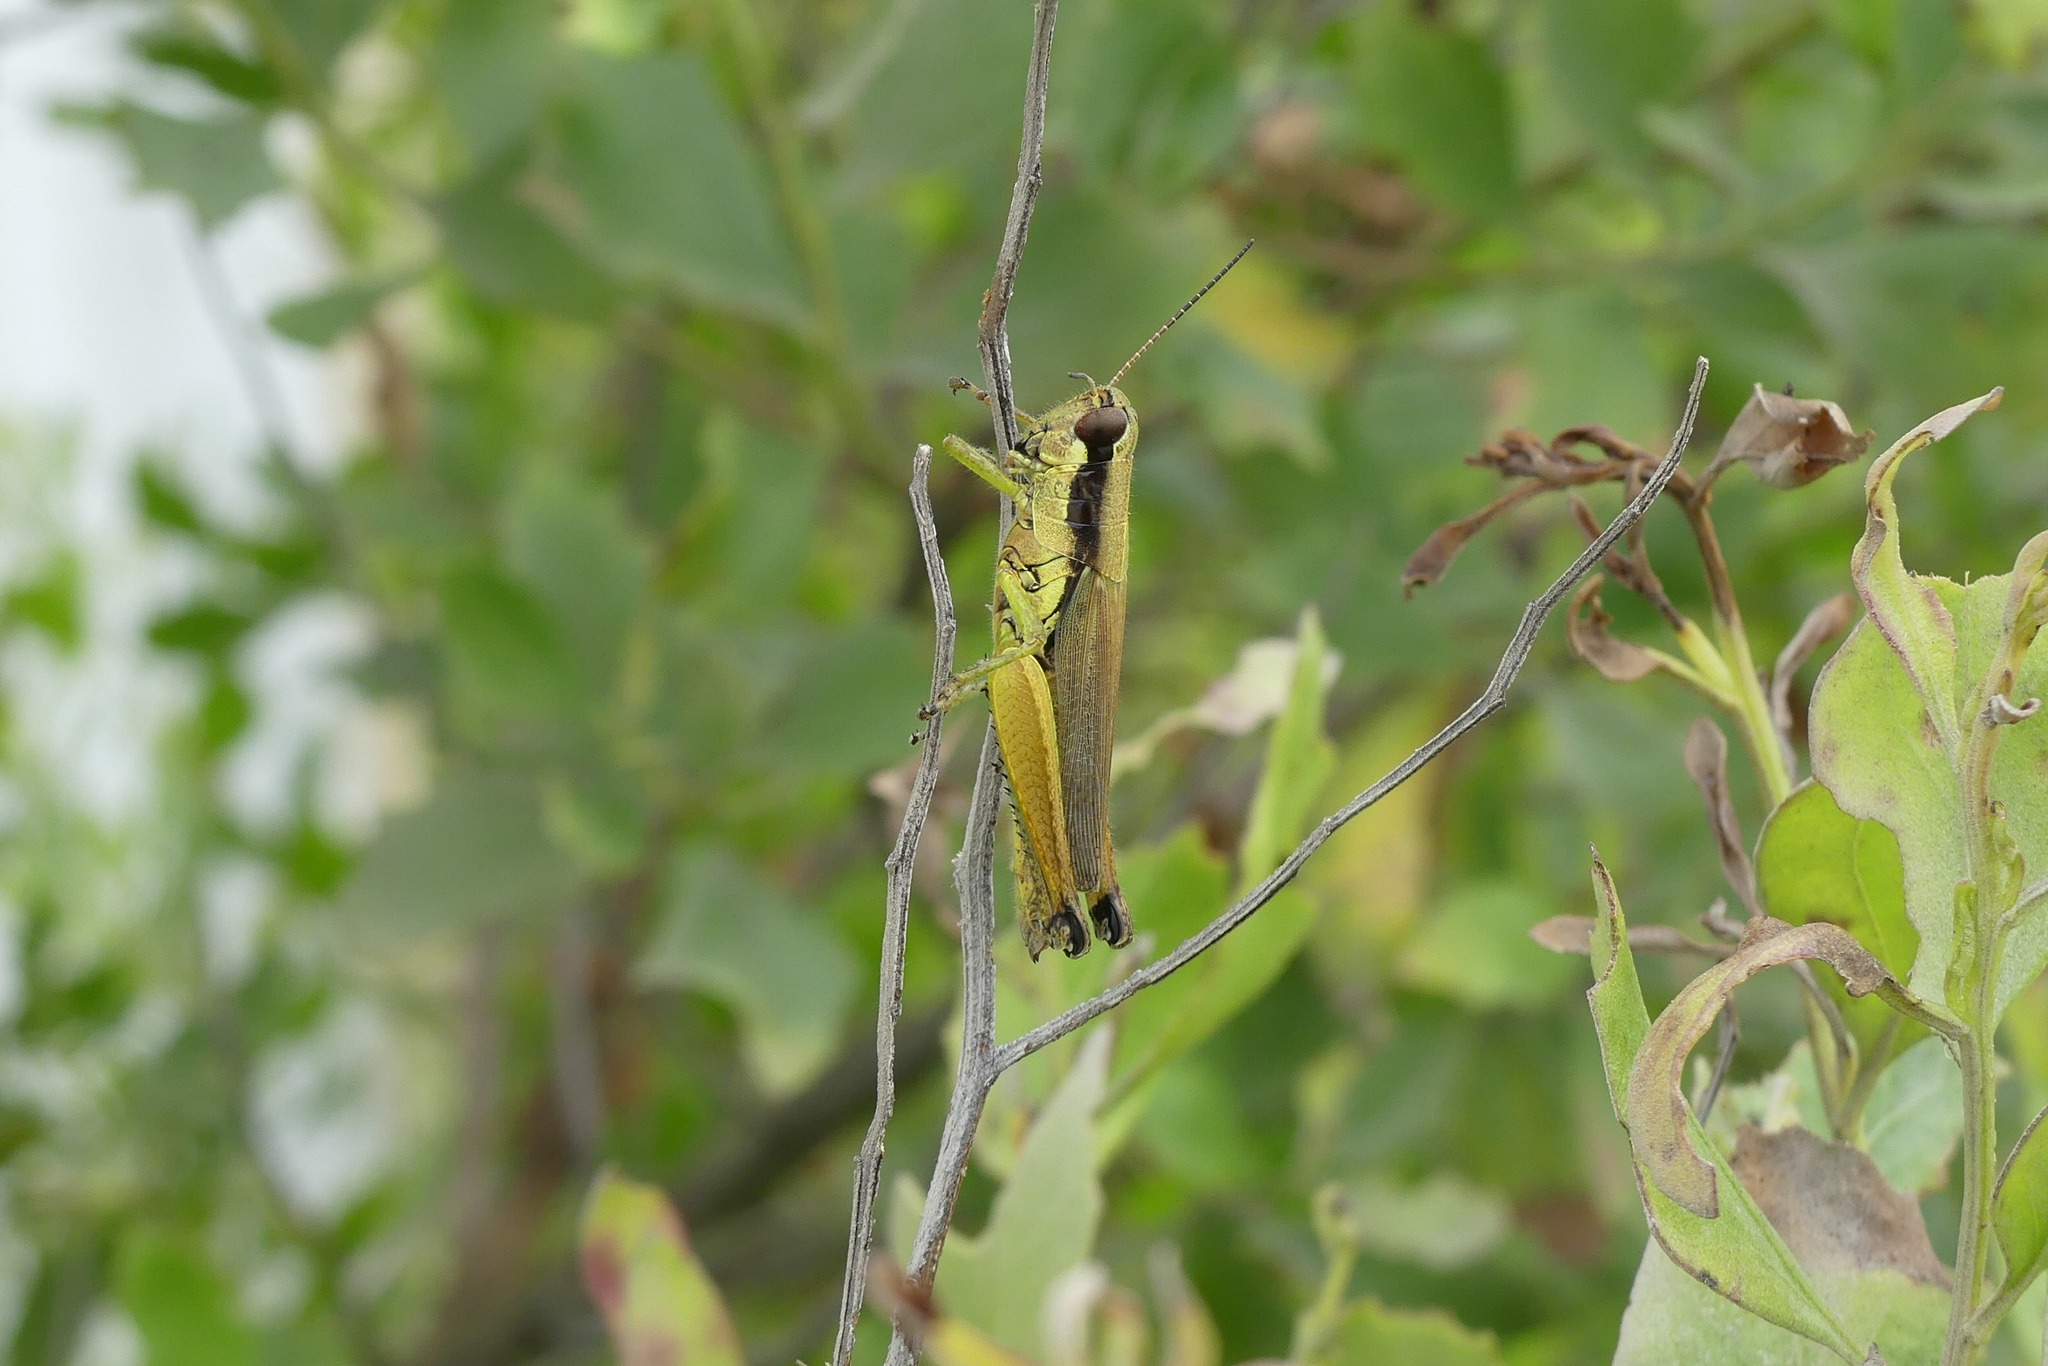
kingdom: Animalia
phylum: Arthropoda
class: Insecta
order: Orthoptera
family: Acrididae
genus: Paroxya
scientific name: Paroxya clavuligera
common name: Olive-green swamp grasshopper
